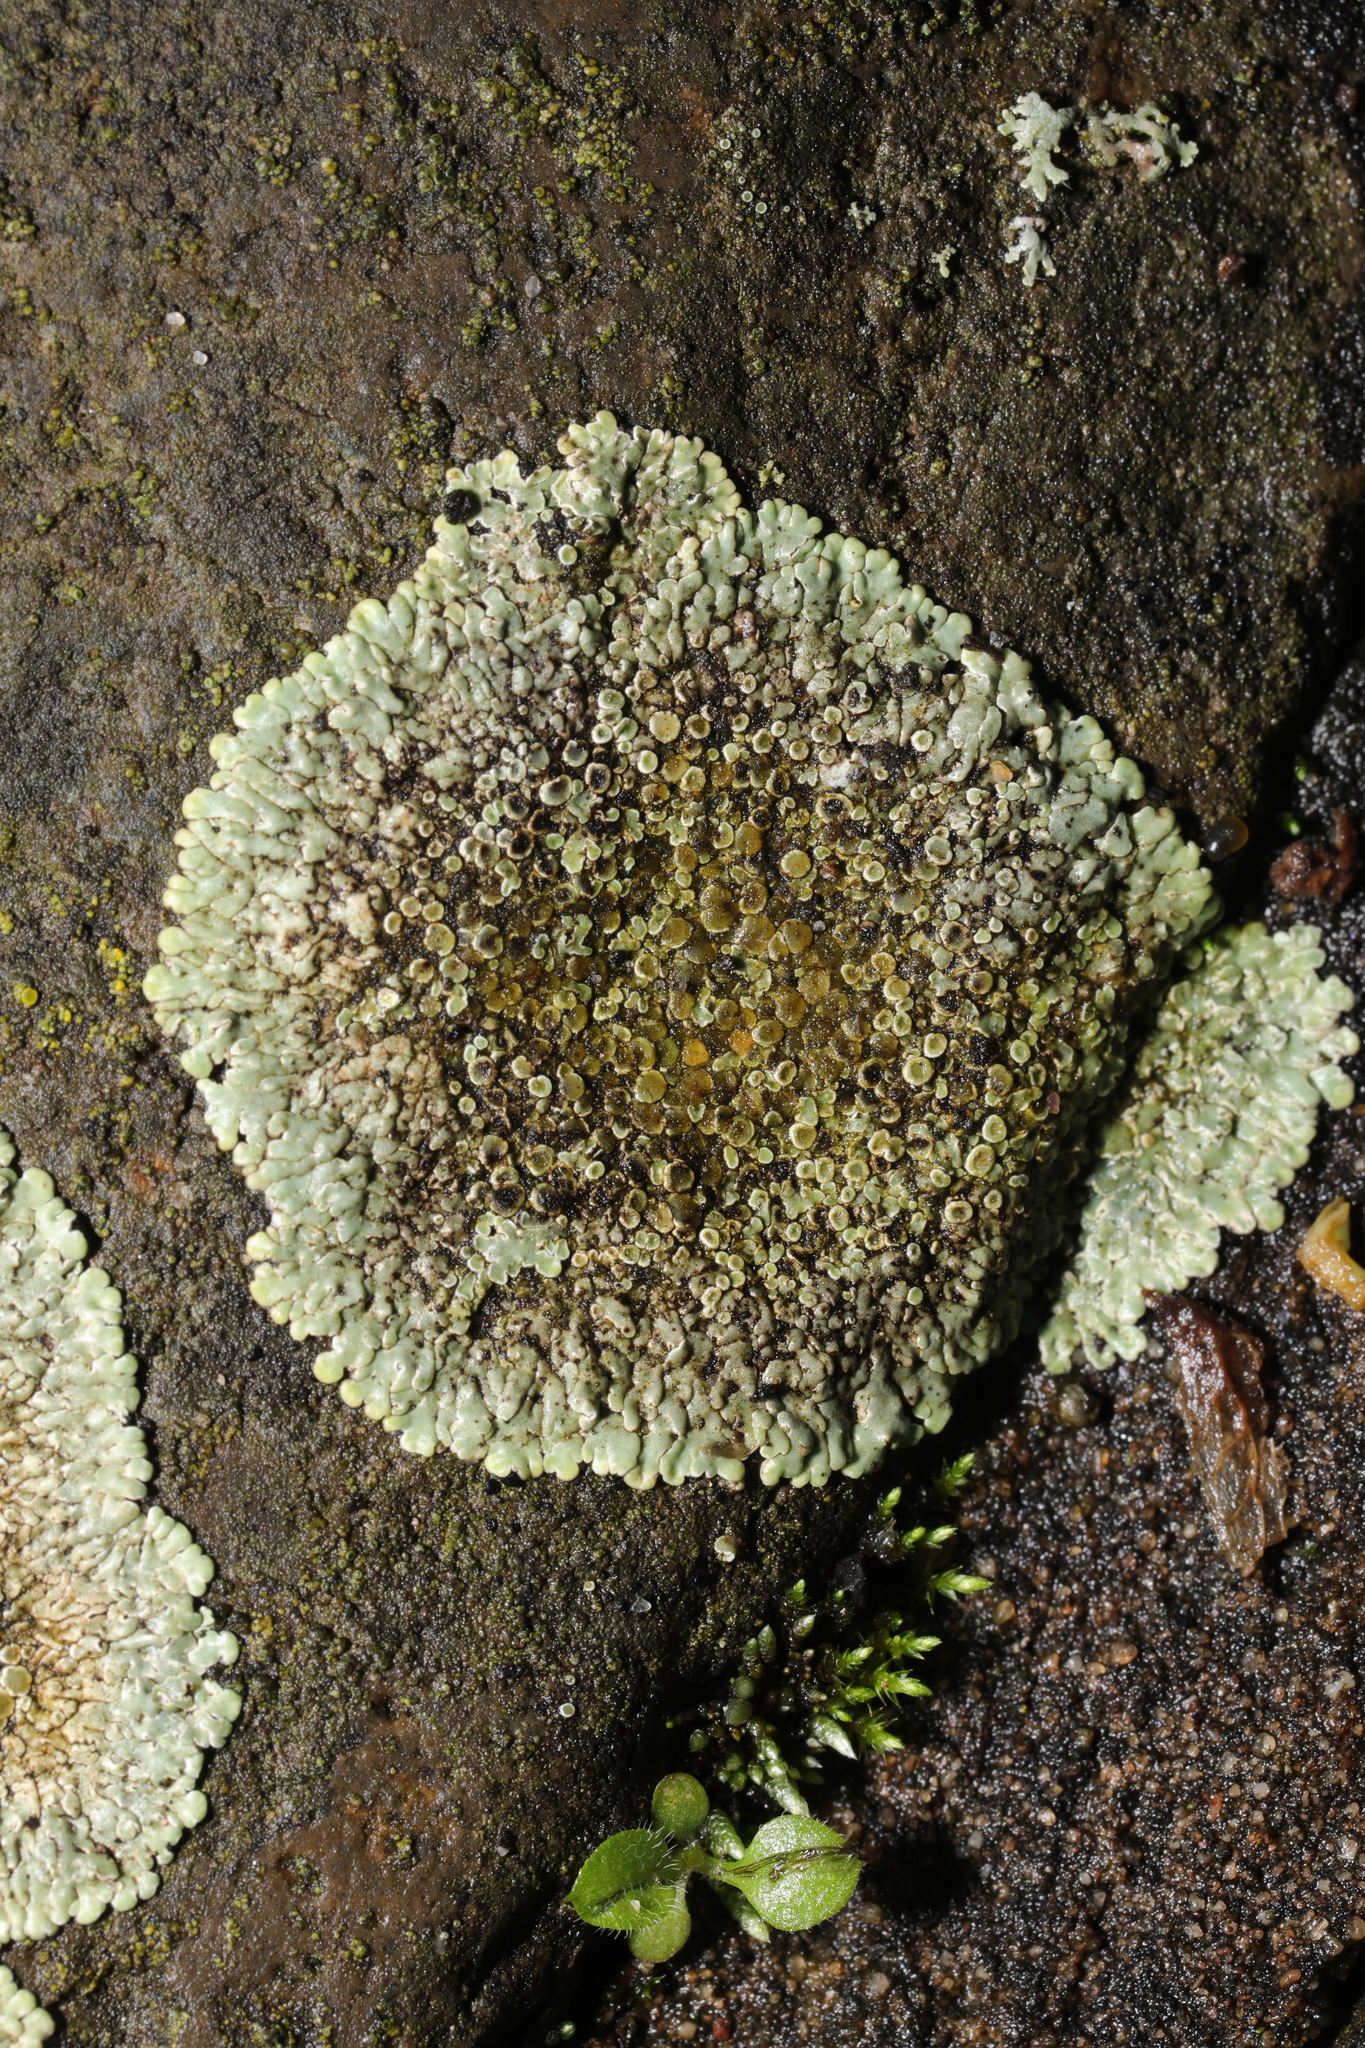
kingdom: Fungi
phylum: Ascomycota
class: Lecanoromycetes
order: Lecanorales
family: Lecanoraceae
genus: Protoparmeliopsis
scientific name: Protoparmeliopsis muralis
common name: Stonewall rim lichen
